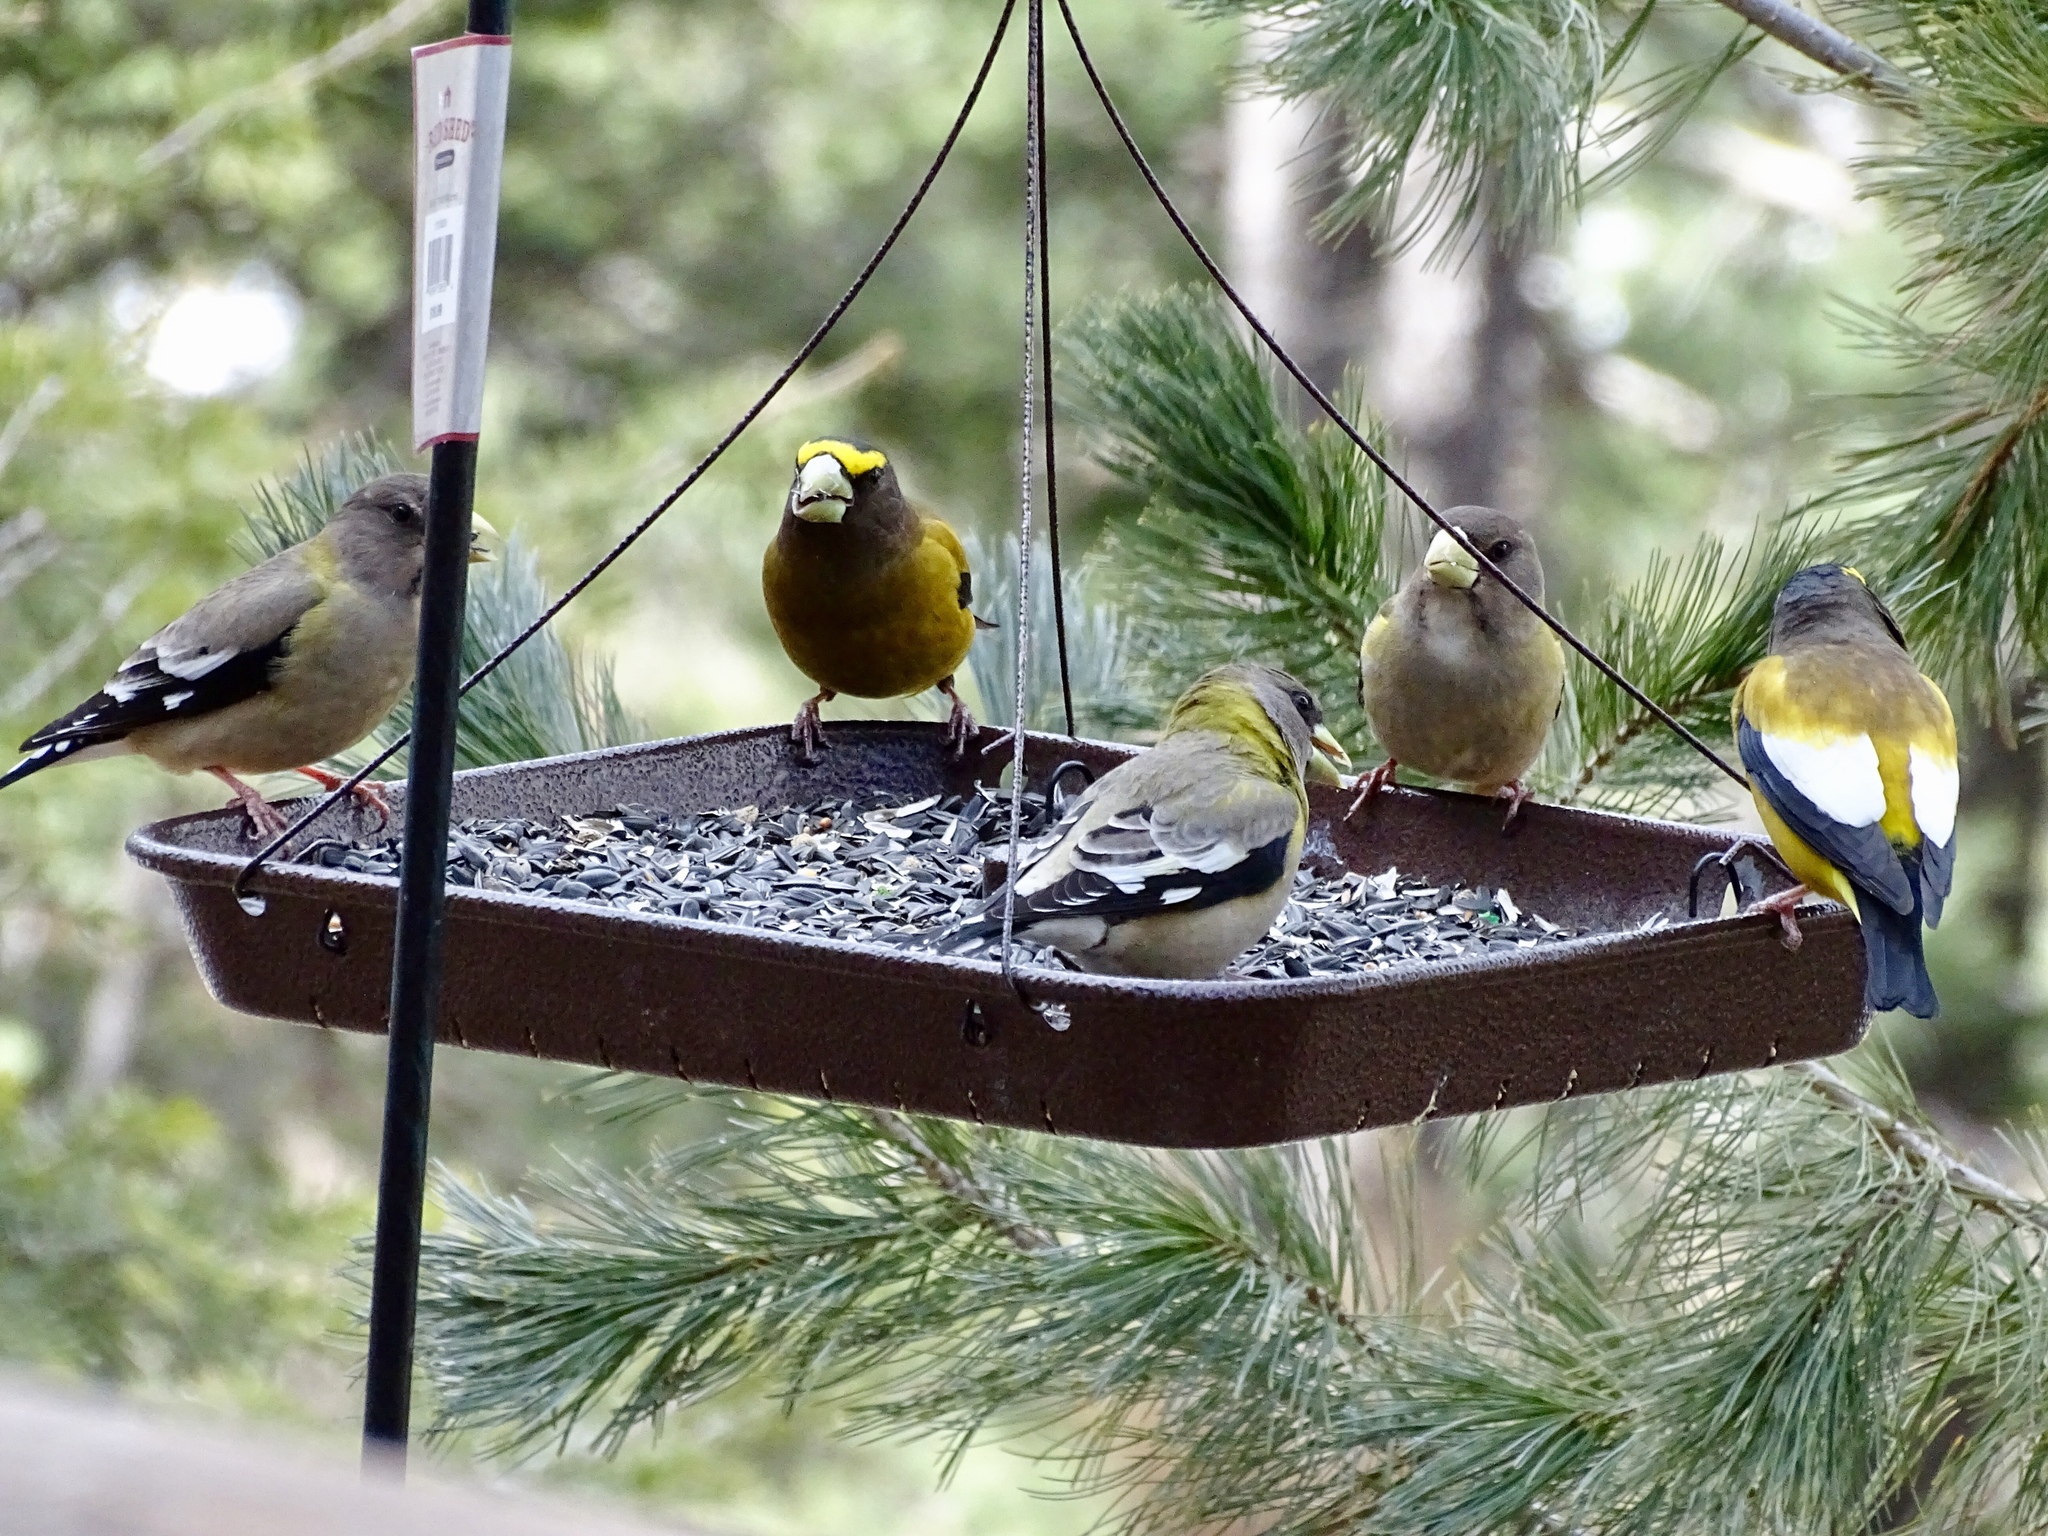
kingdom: Animalia
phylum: Chordata
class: Aves
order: Passeriformes
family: Fringillidae
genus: Hesperiphona
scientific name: Hesperiphona vespertina
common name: Evening grosbeak
